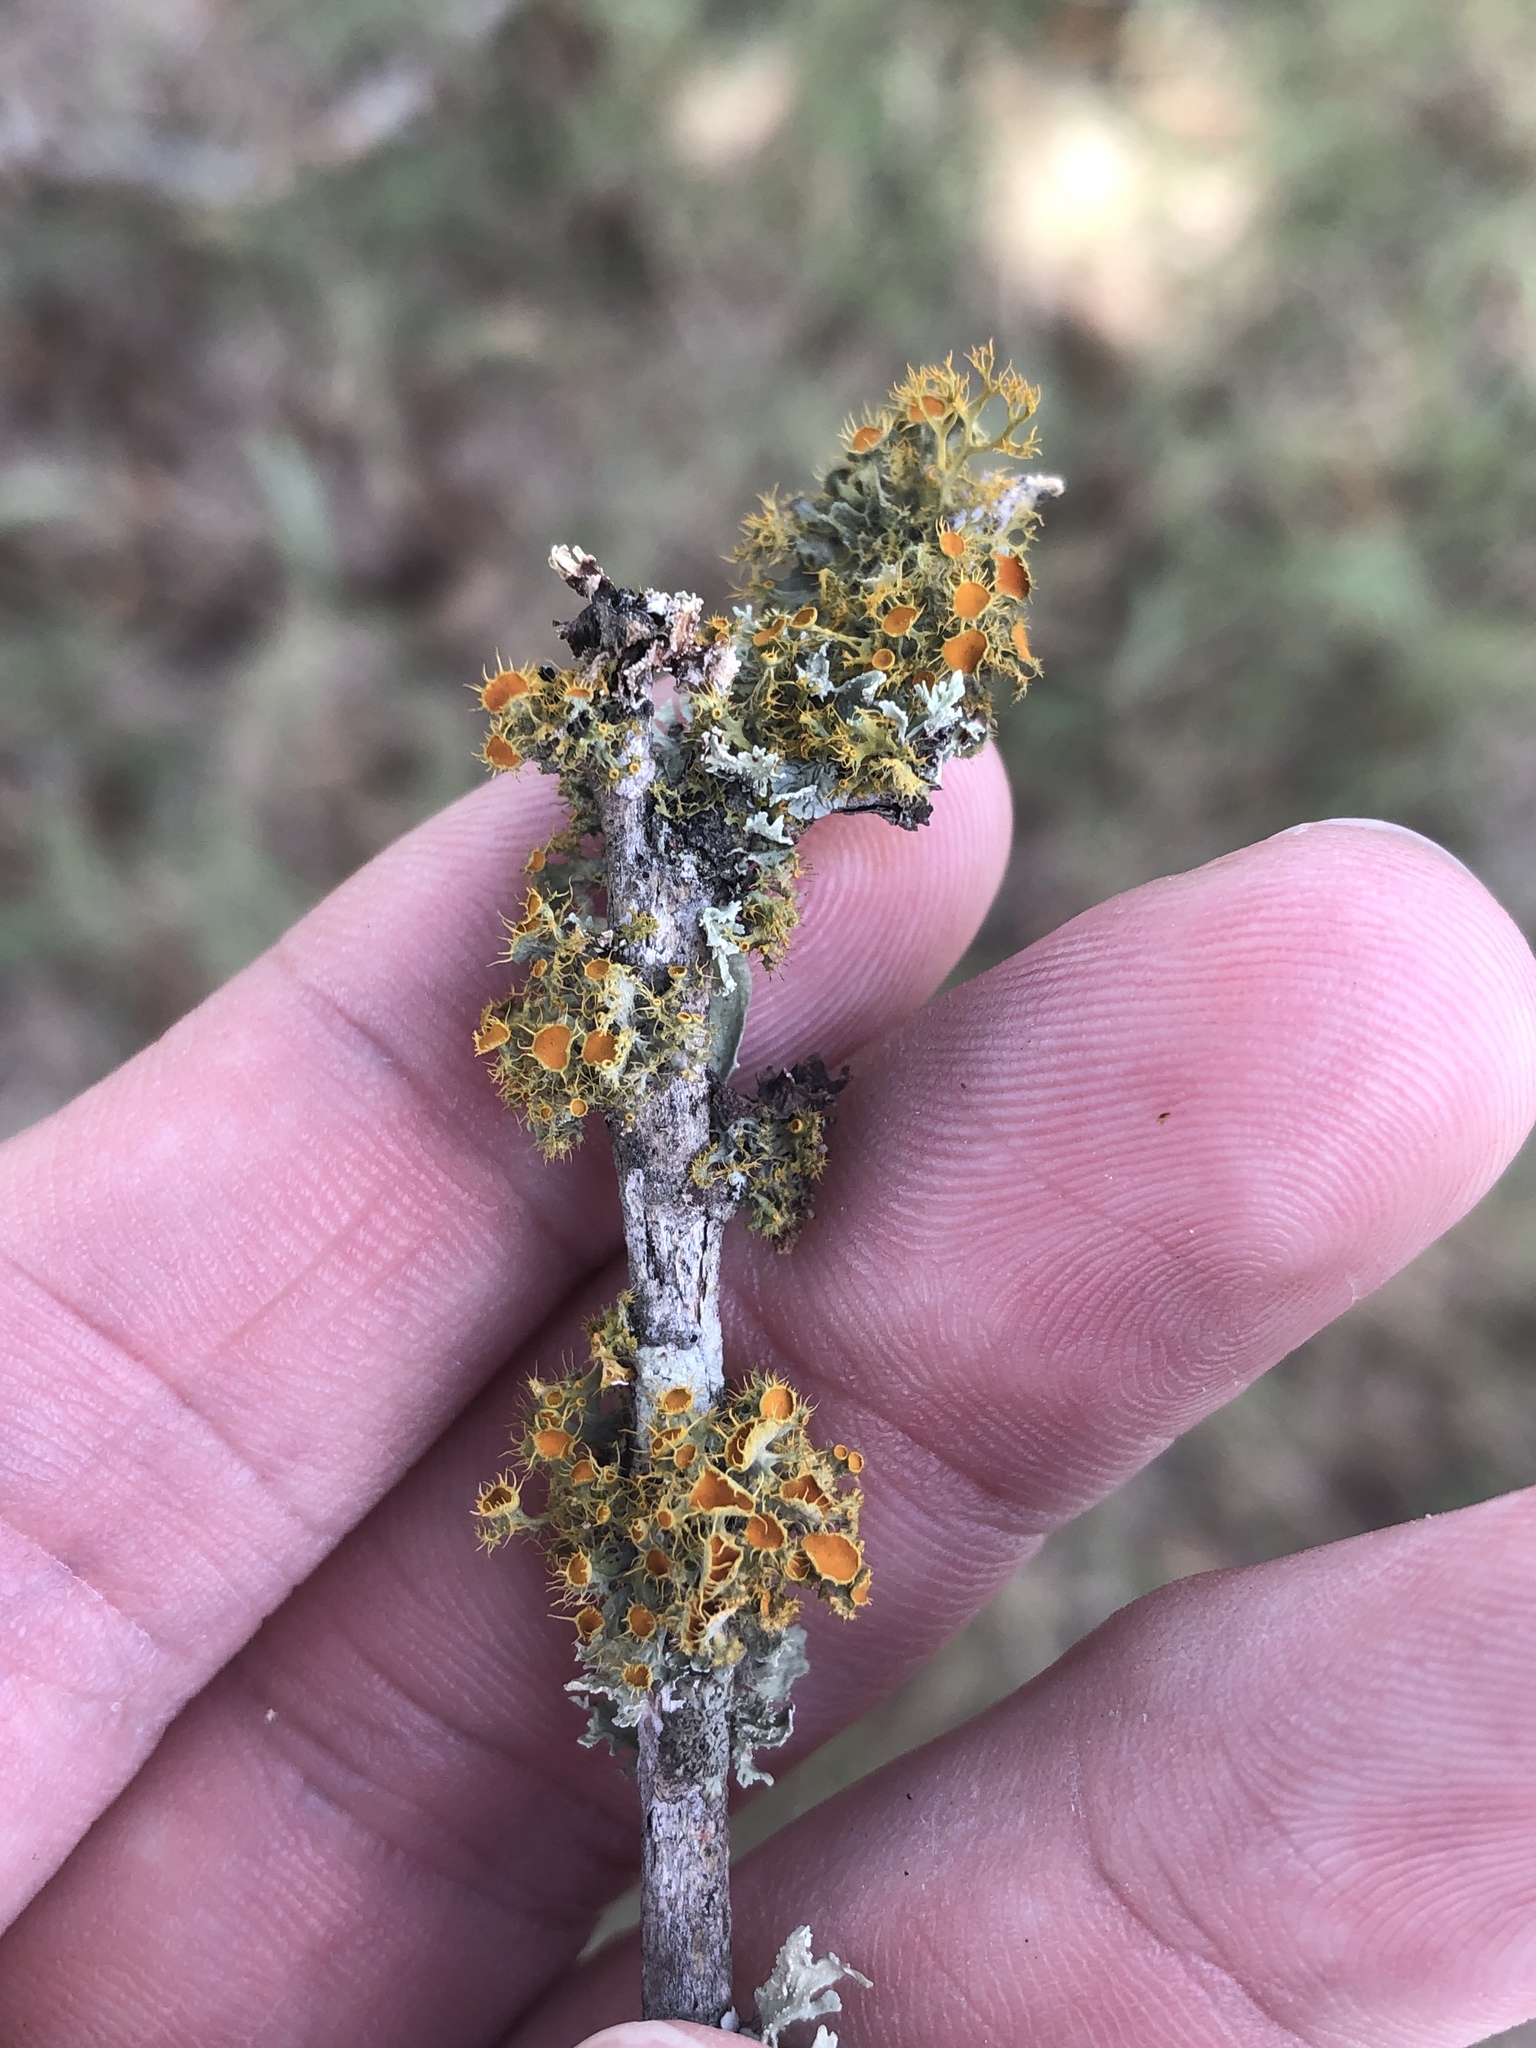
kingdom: Fungi
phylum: Ascomycota
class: Lecanoromycetes
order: Teloschistales
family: Teloschistaceae
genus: Niorma
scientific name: Niorma chrysophthalma
